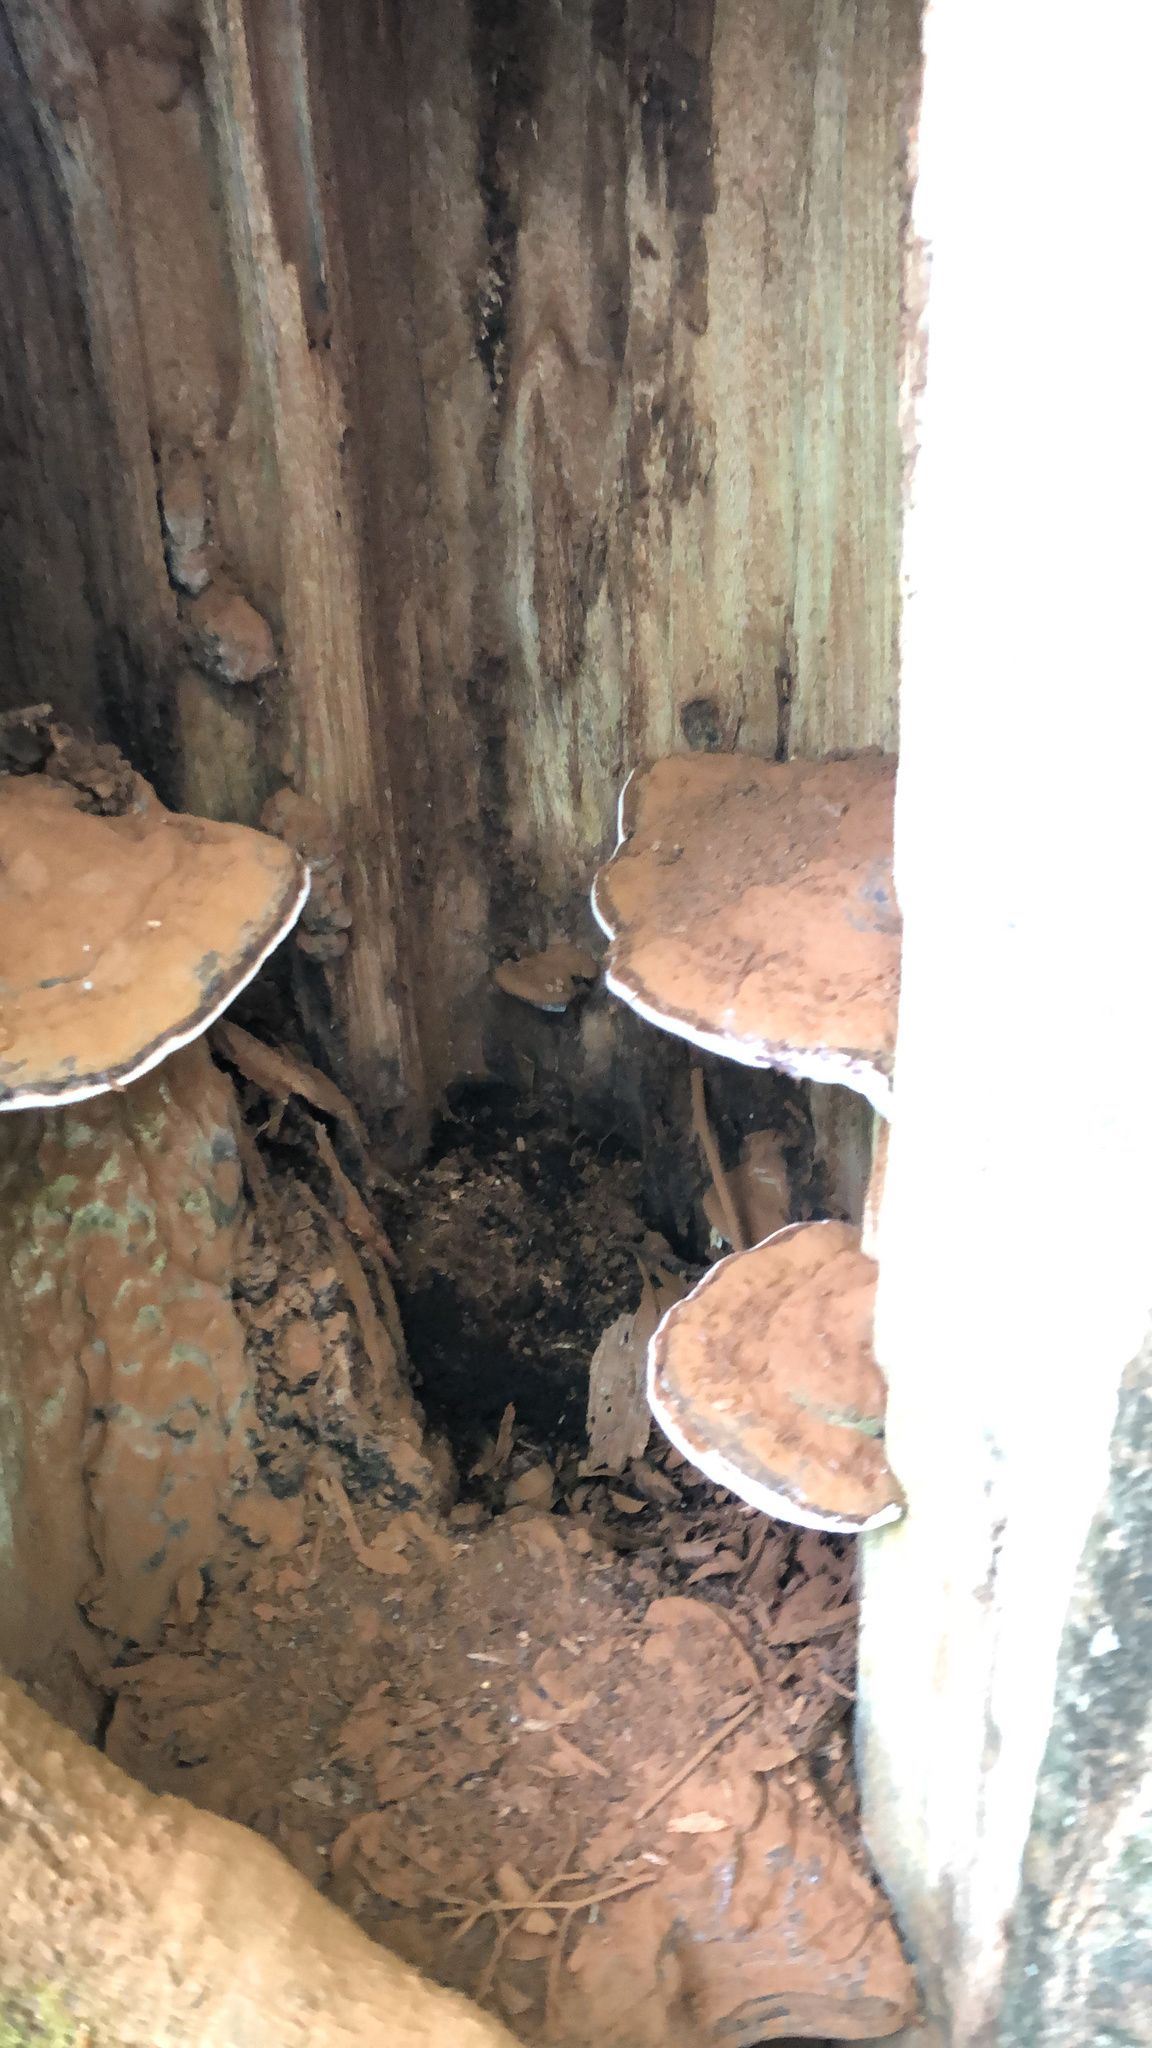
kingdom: Fungi
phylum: Basidiomycota
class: Agaricomycetes
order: Polyporales
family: Polyporaceae
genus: Ganoderma
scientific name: Ganoderma applanatum
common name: Artist's bracket
